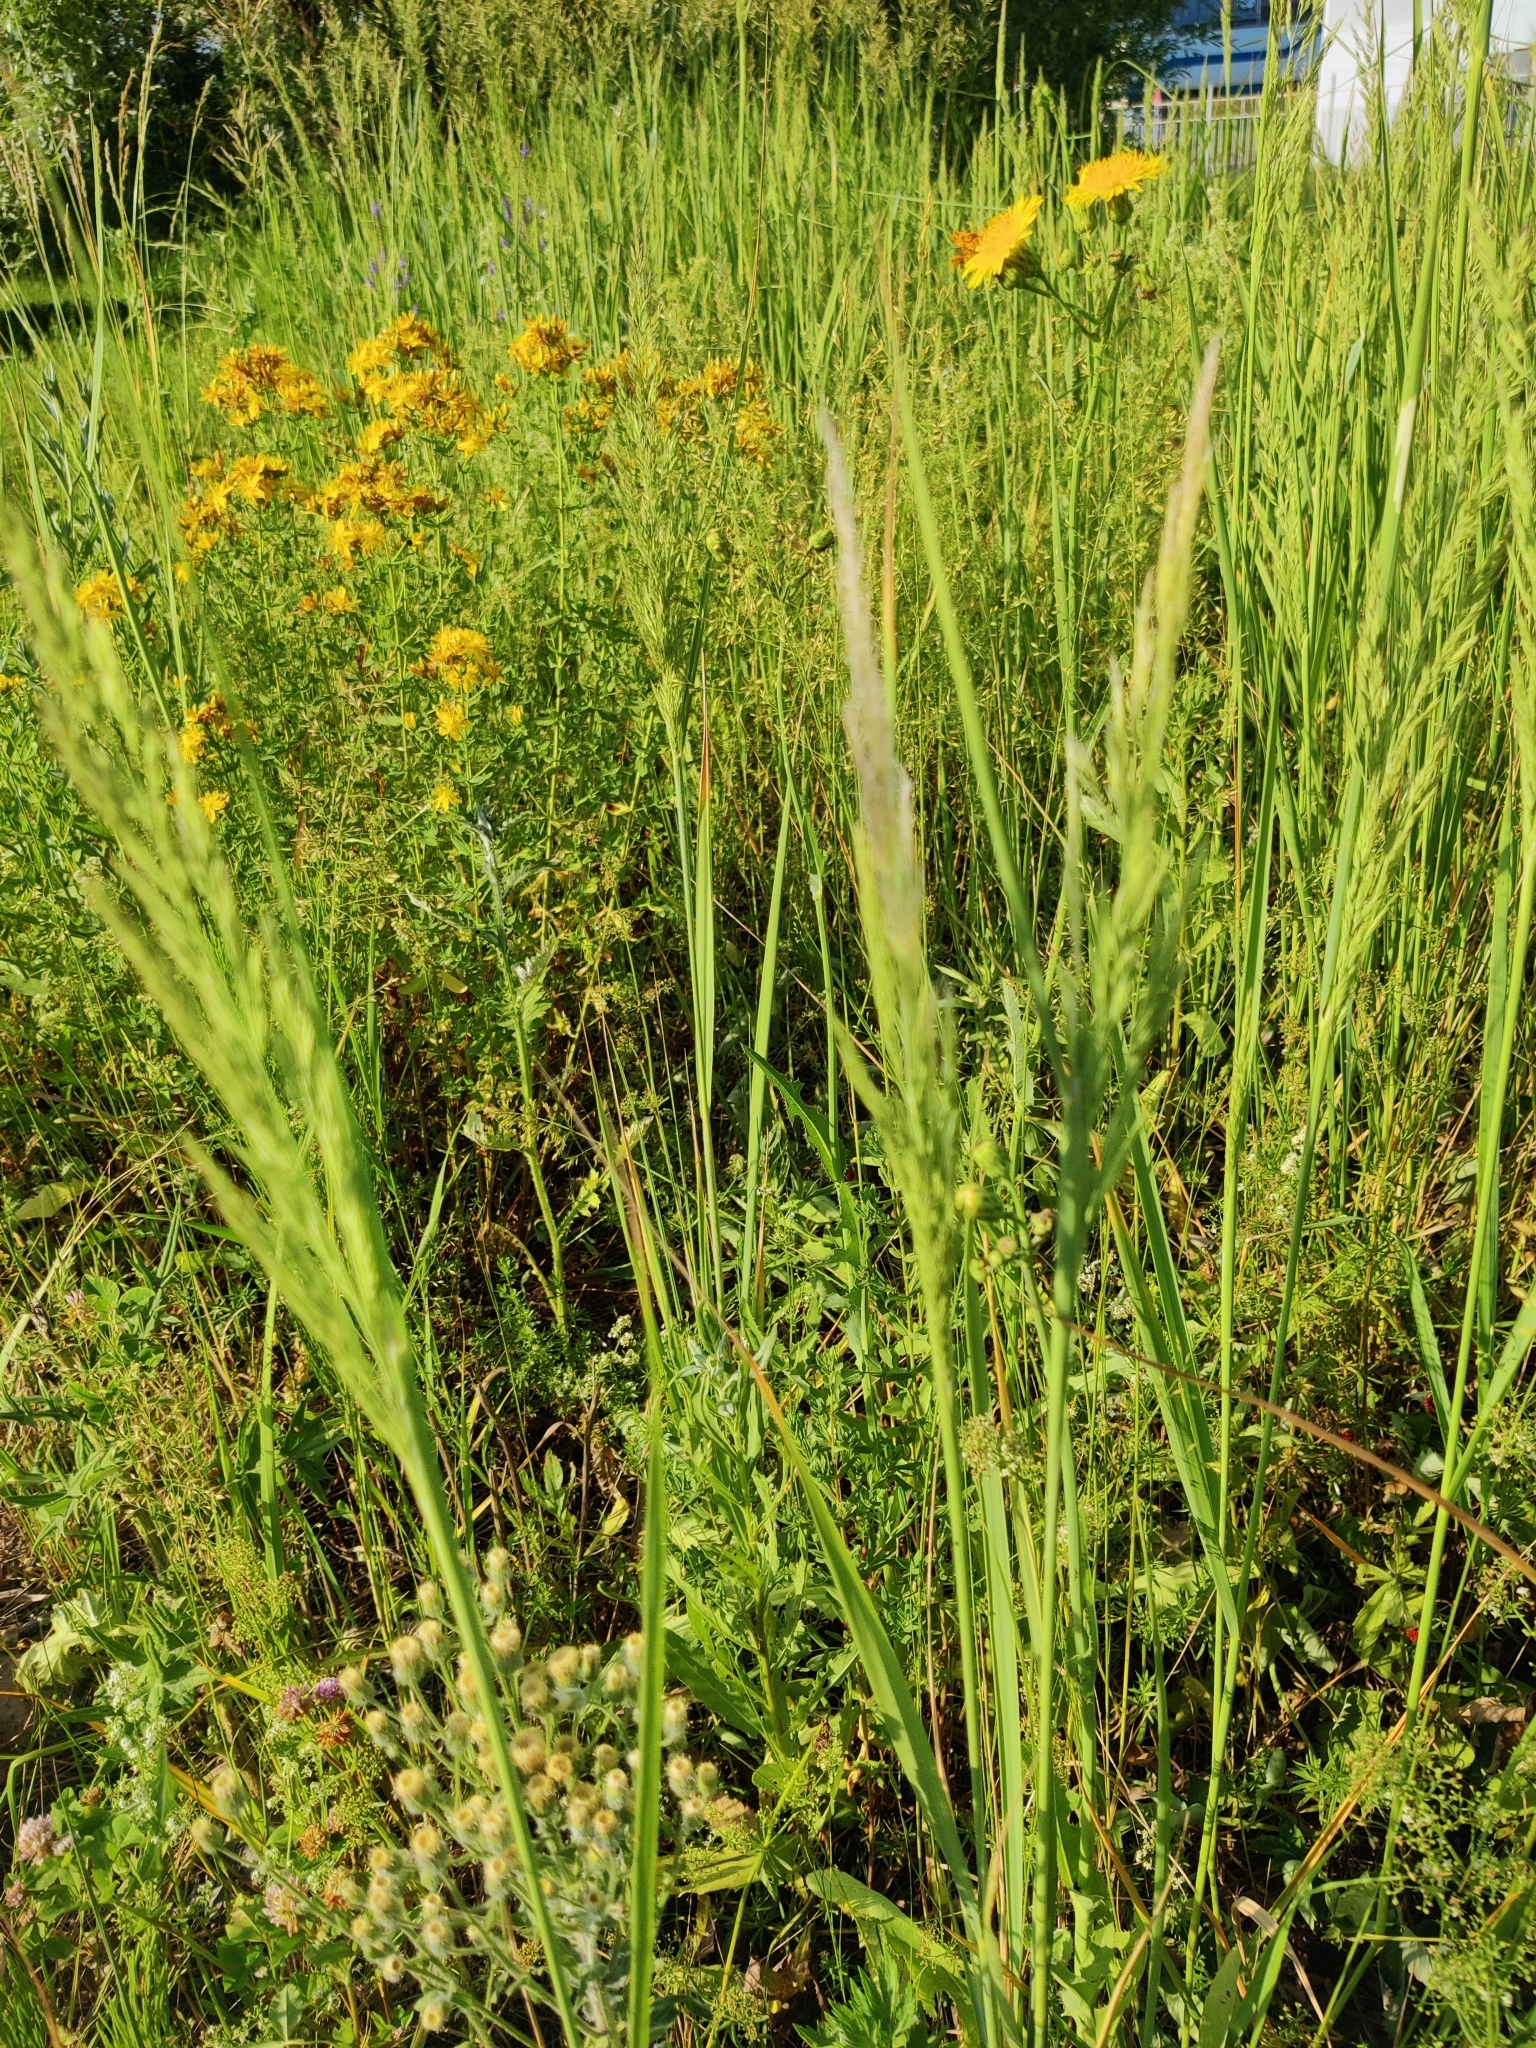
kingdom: Plantae
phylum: Tracheophyta
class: Liliopsida
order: Poales
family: Poaceae
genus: Calamagrostis
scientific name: Calamagrostis epigejos
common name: Wood small-reed
